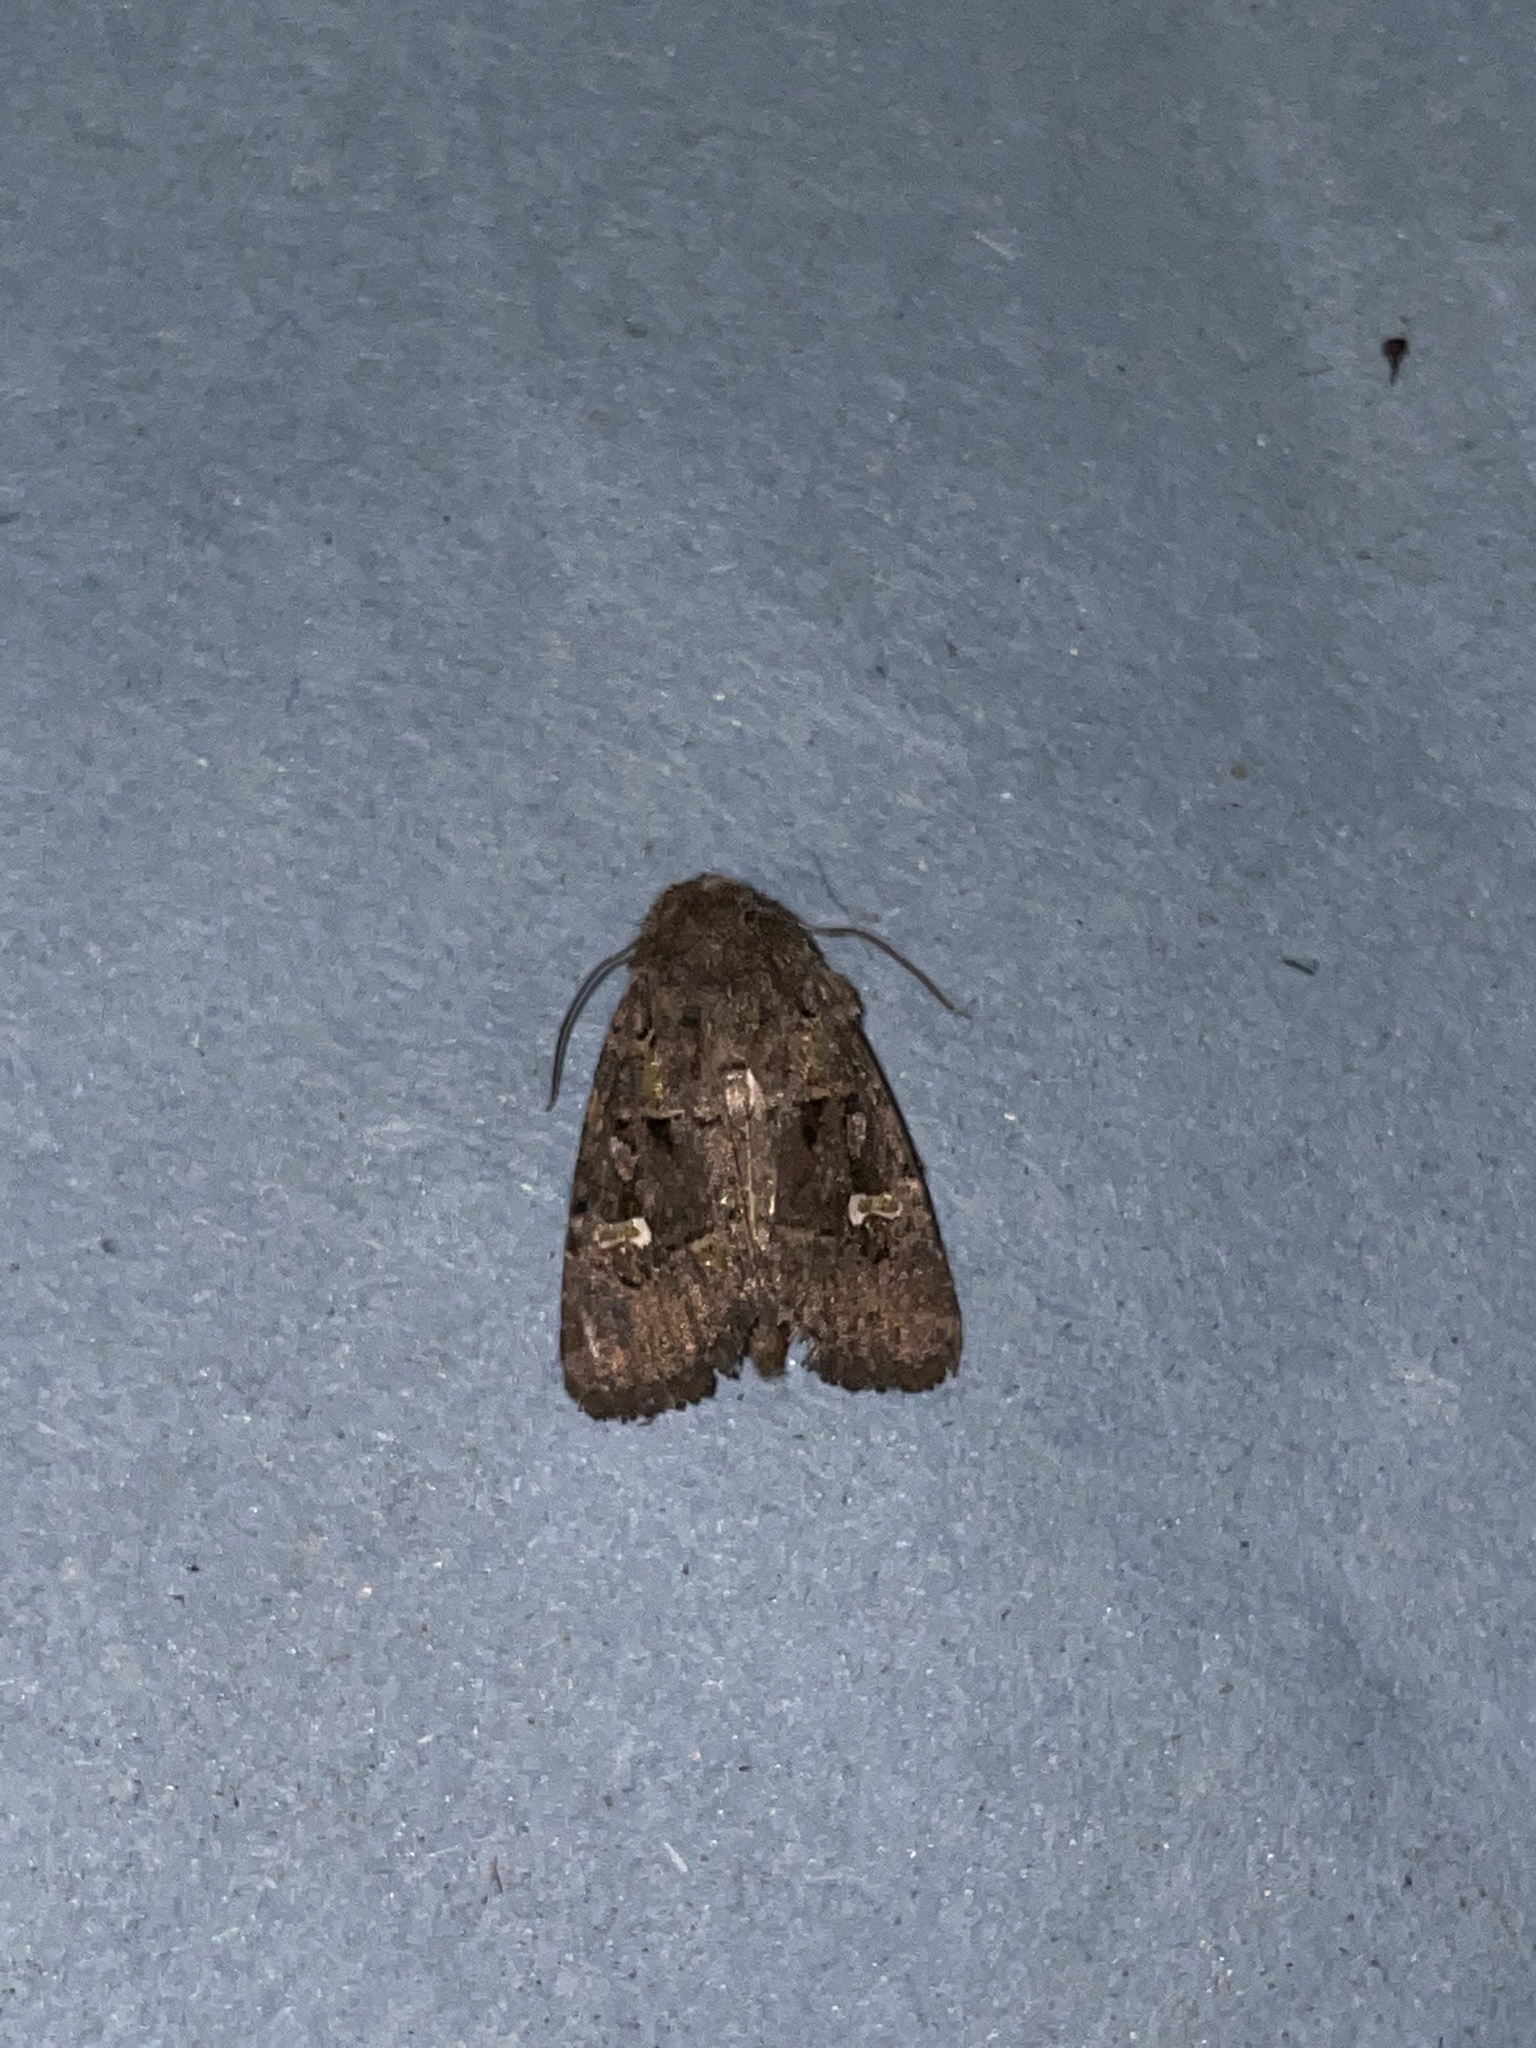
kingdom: Animalia
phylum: Arthropoda
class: Insecta
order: Lepidoptera
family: Noctuidae
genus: Lacinipolia
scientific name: Lacinipolia renigera
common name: Kidney-spotted minor
